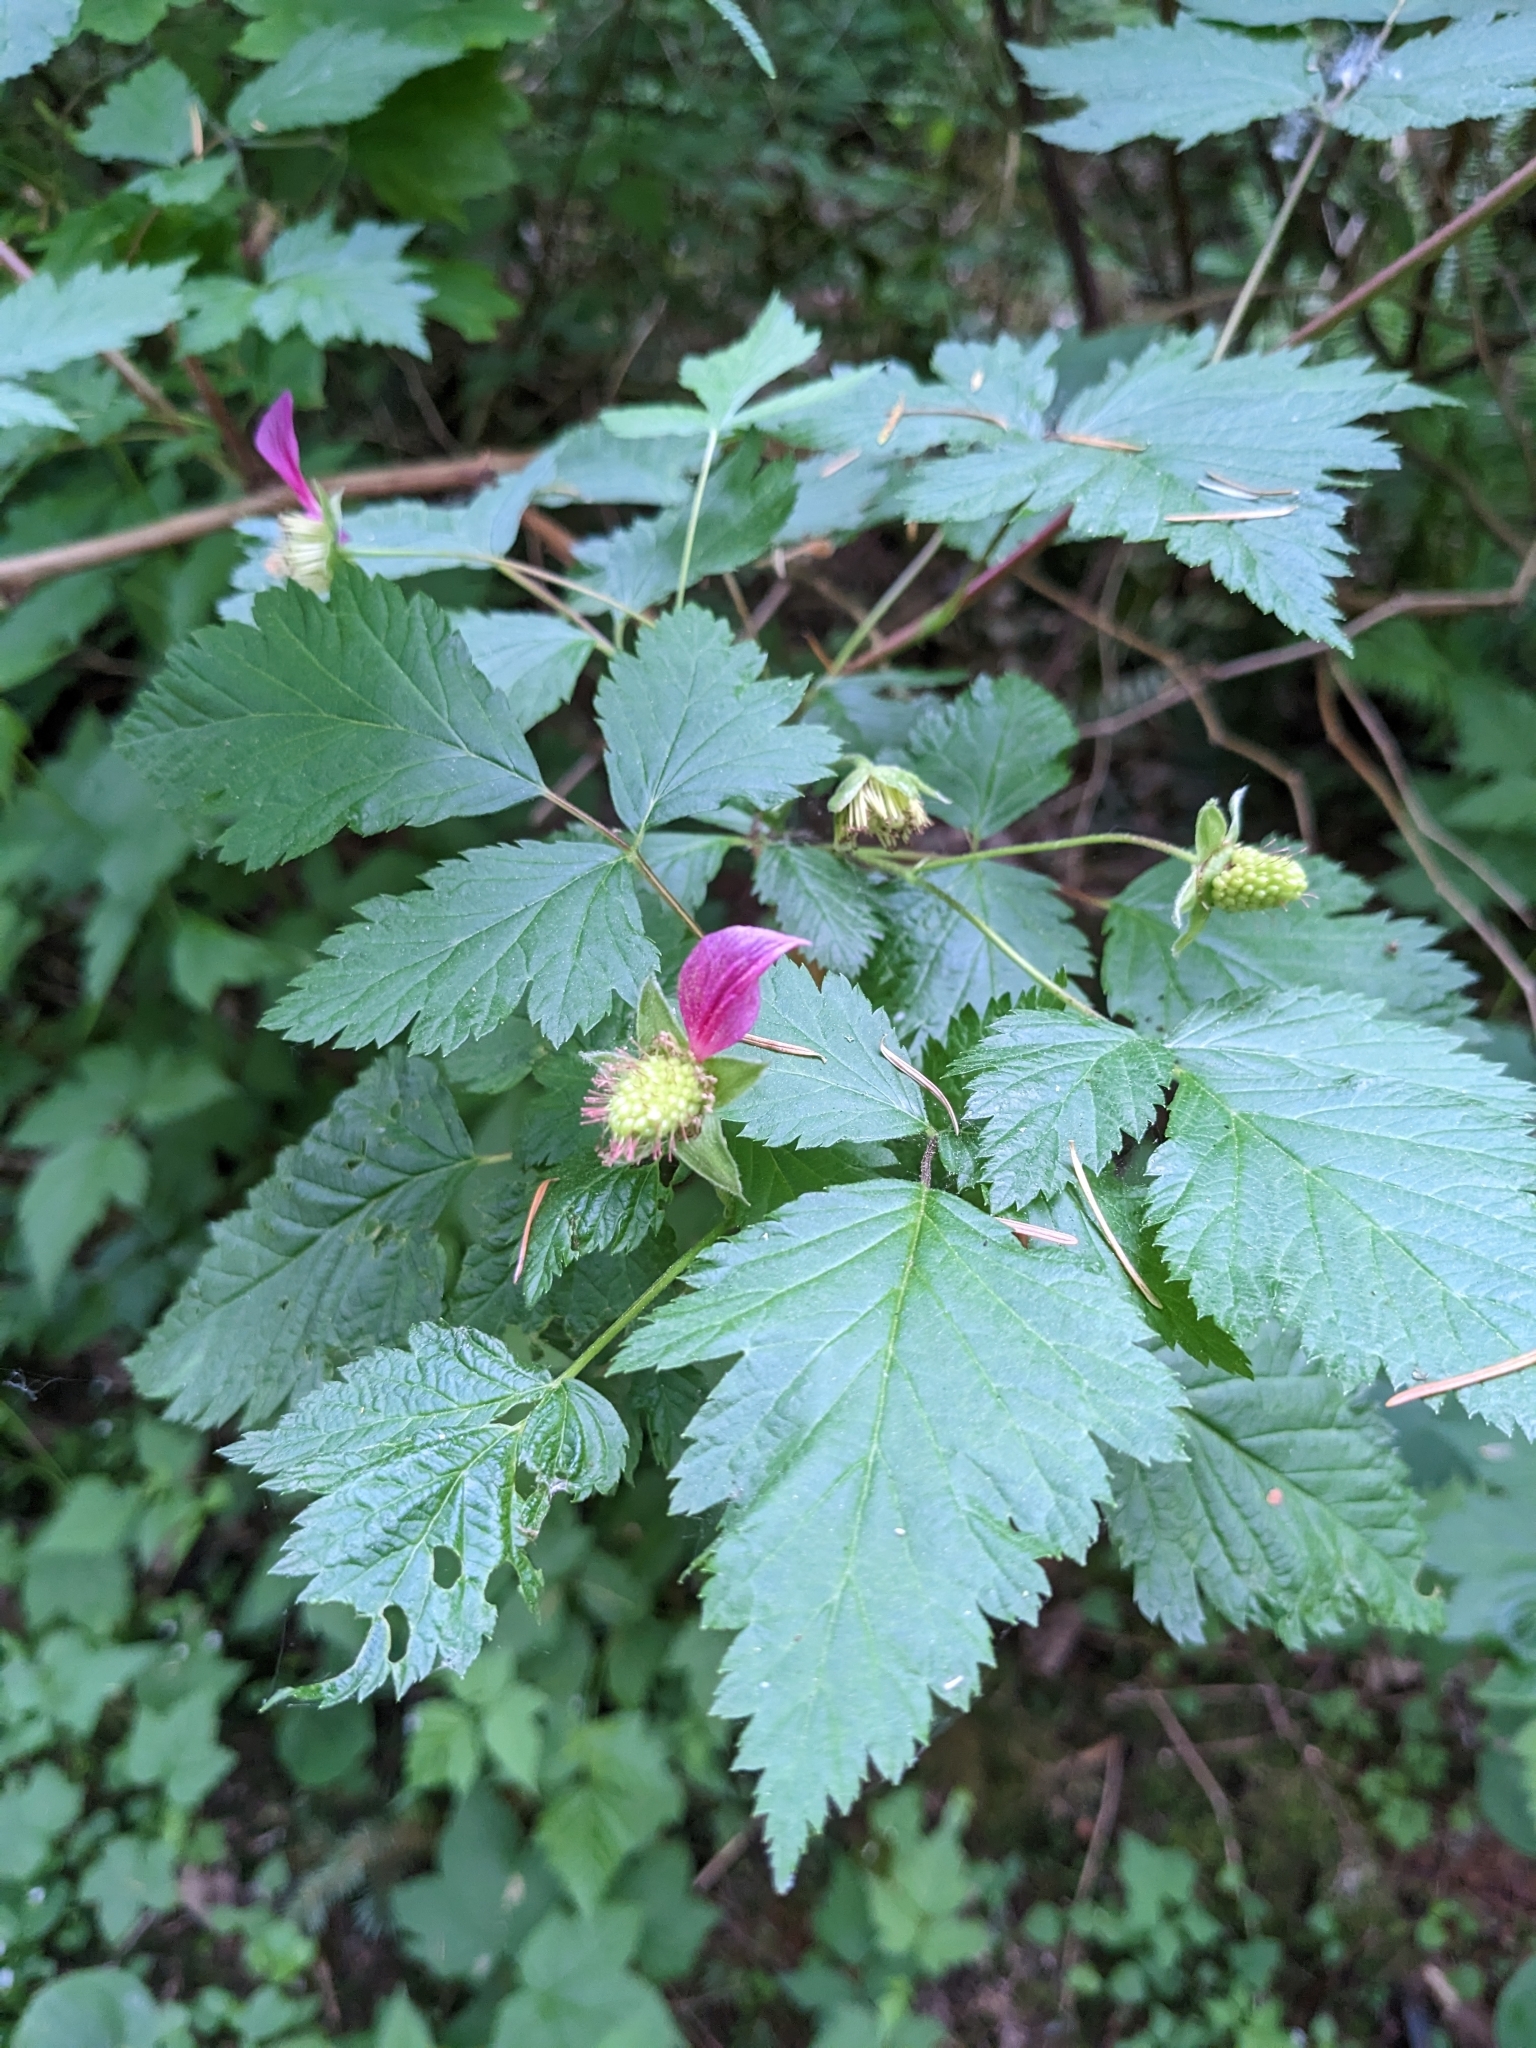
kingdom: Plantae
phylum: Tracheophyta
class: Magnoliopsida
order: Rosales
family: Rosaceae
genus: Rubus
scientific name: Rubus spectabilis
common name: Salmonberry
